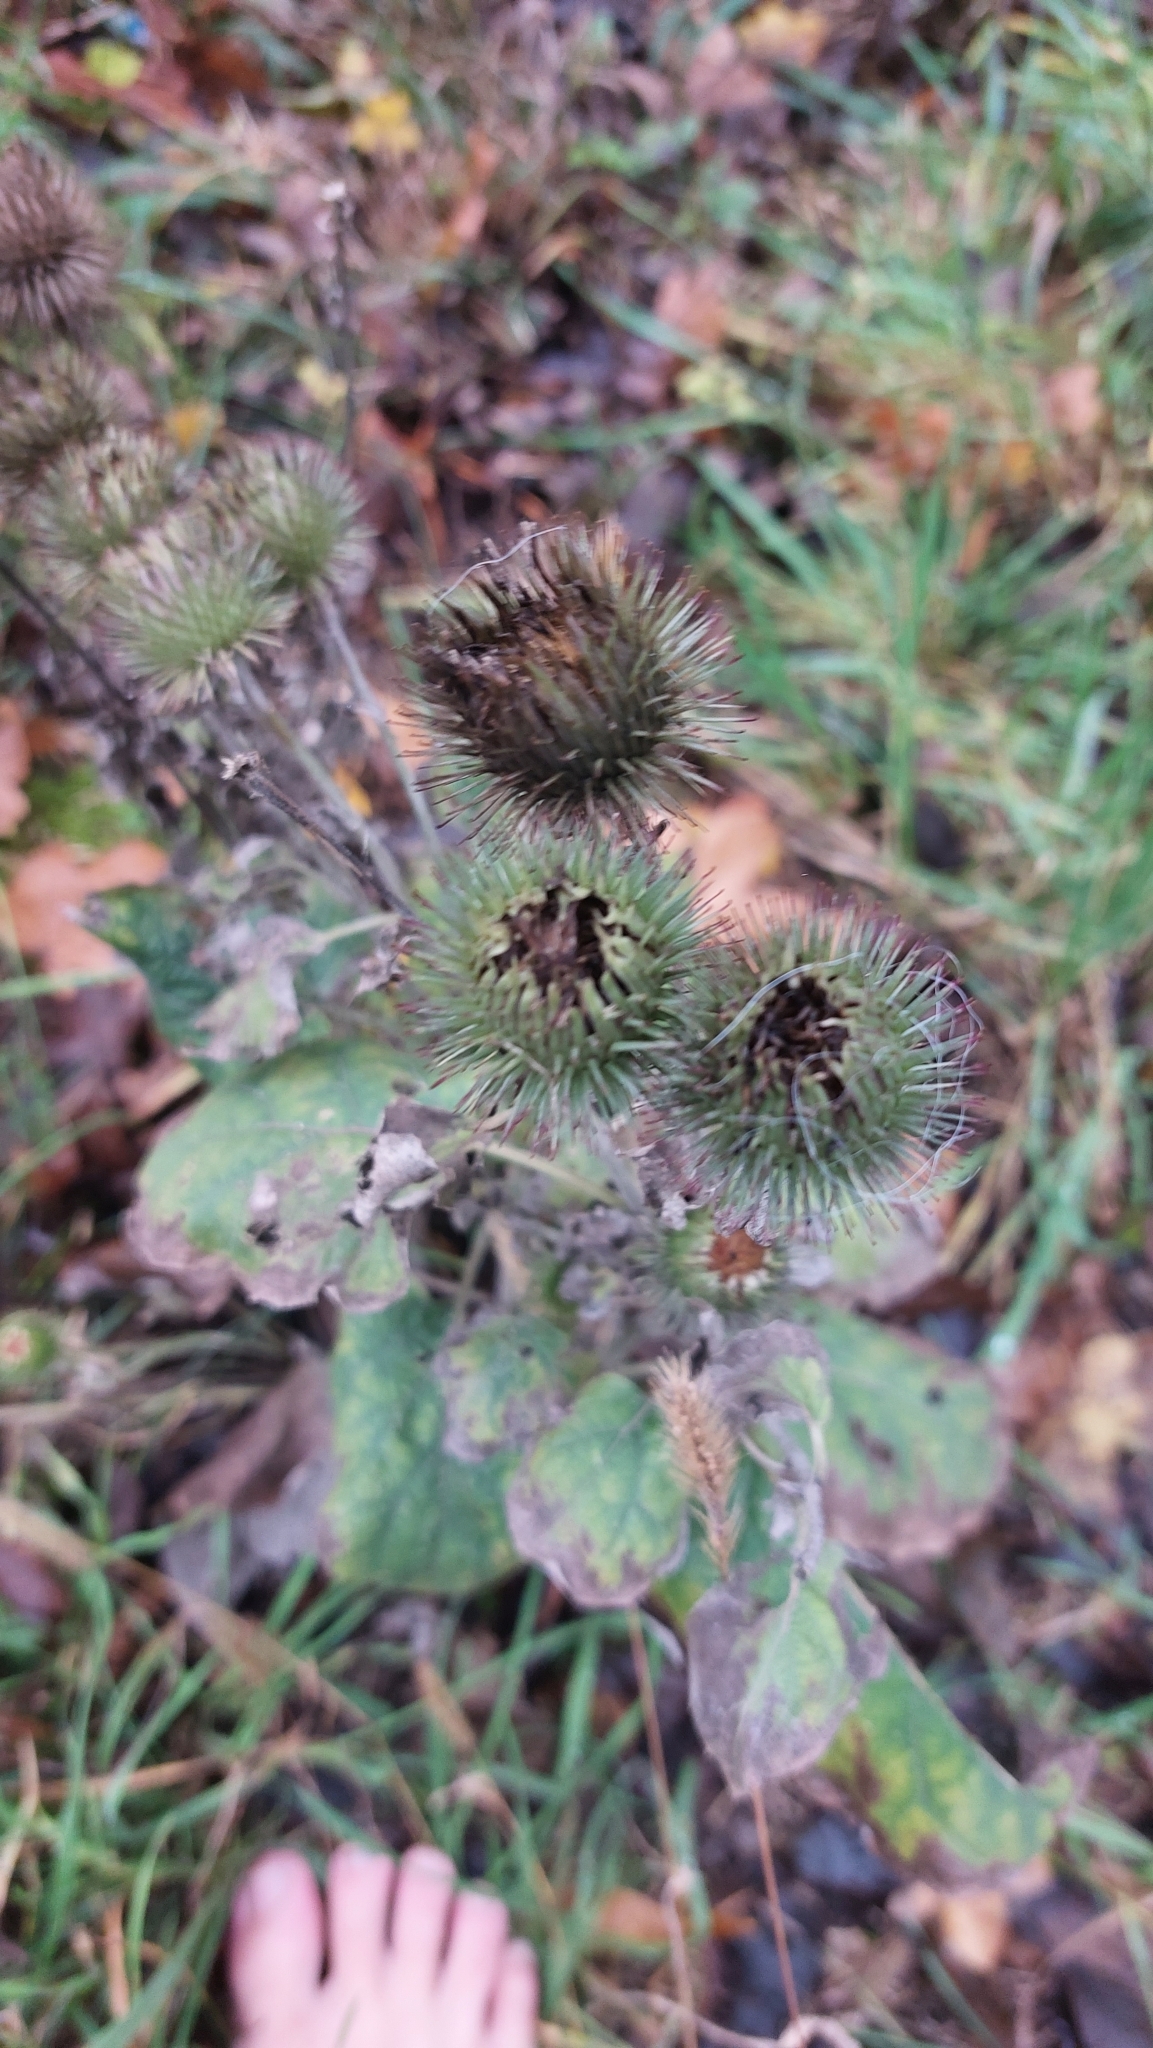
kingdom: Plantae
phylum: Tracheophyta
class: Magnoliopsida
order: Asterales
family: Asteraceae
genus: Arctium
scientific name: Arctium lappa
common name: Greater burdock
